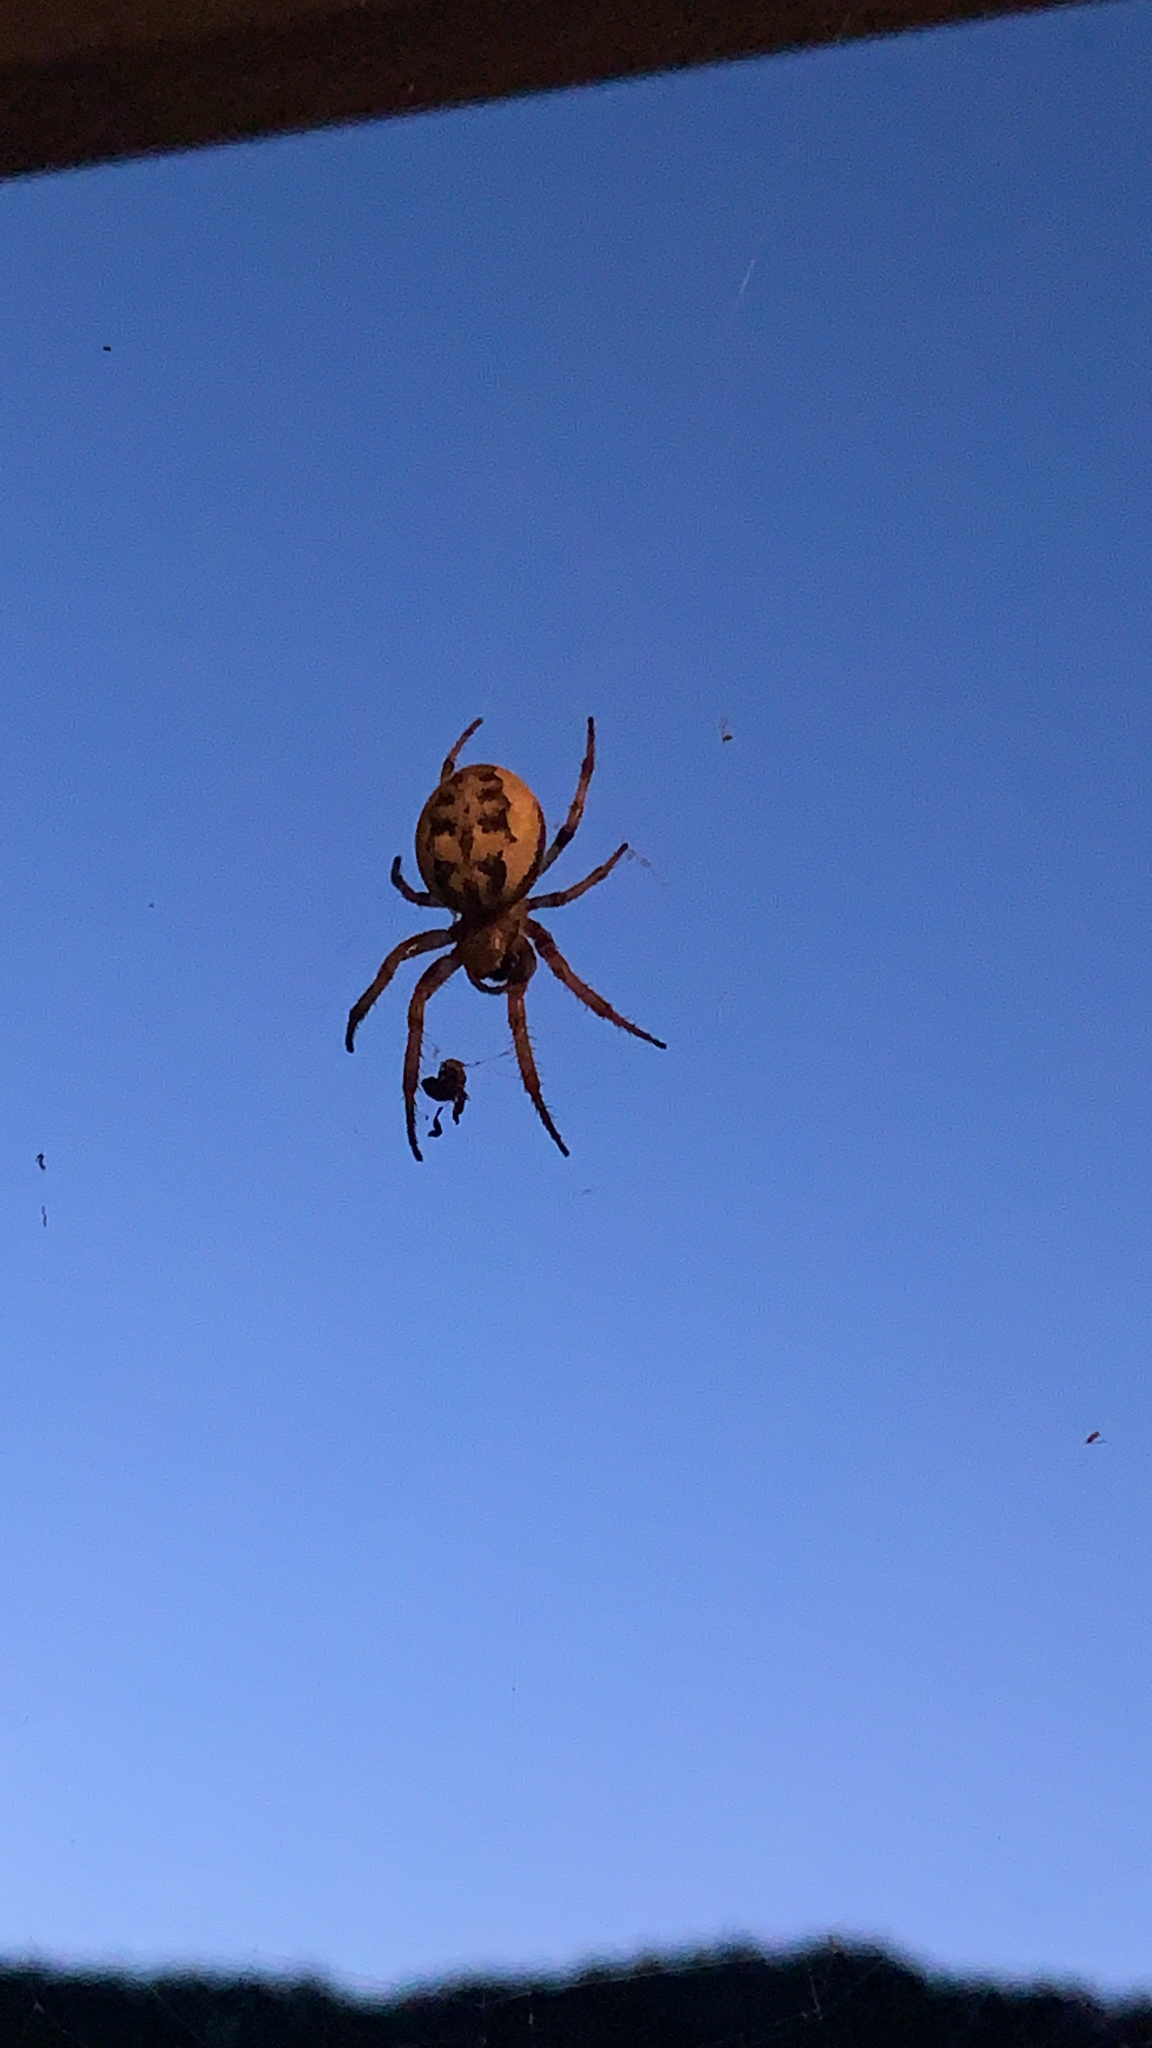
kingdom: Animalia
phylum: Arthropoda
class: Arachnida
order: Araneae
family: Araneidae
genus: Larinioides
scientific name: Larinioides cornutus
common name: Furrow orbweaver
